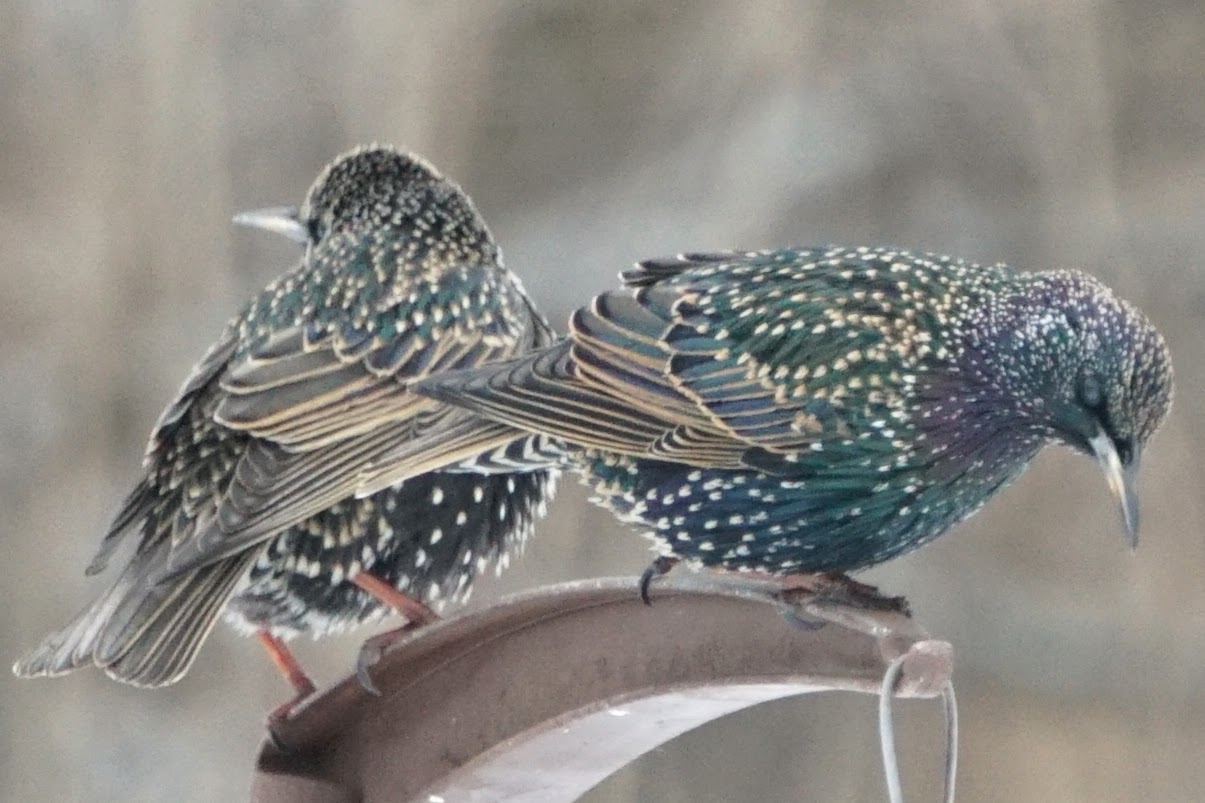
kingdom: Animalia
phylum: Chordata
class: Aves
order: Passeriformes
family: Sturnidae
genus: Sturnus
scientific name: Sturnus vulgaris
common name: Common starling
